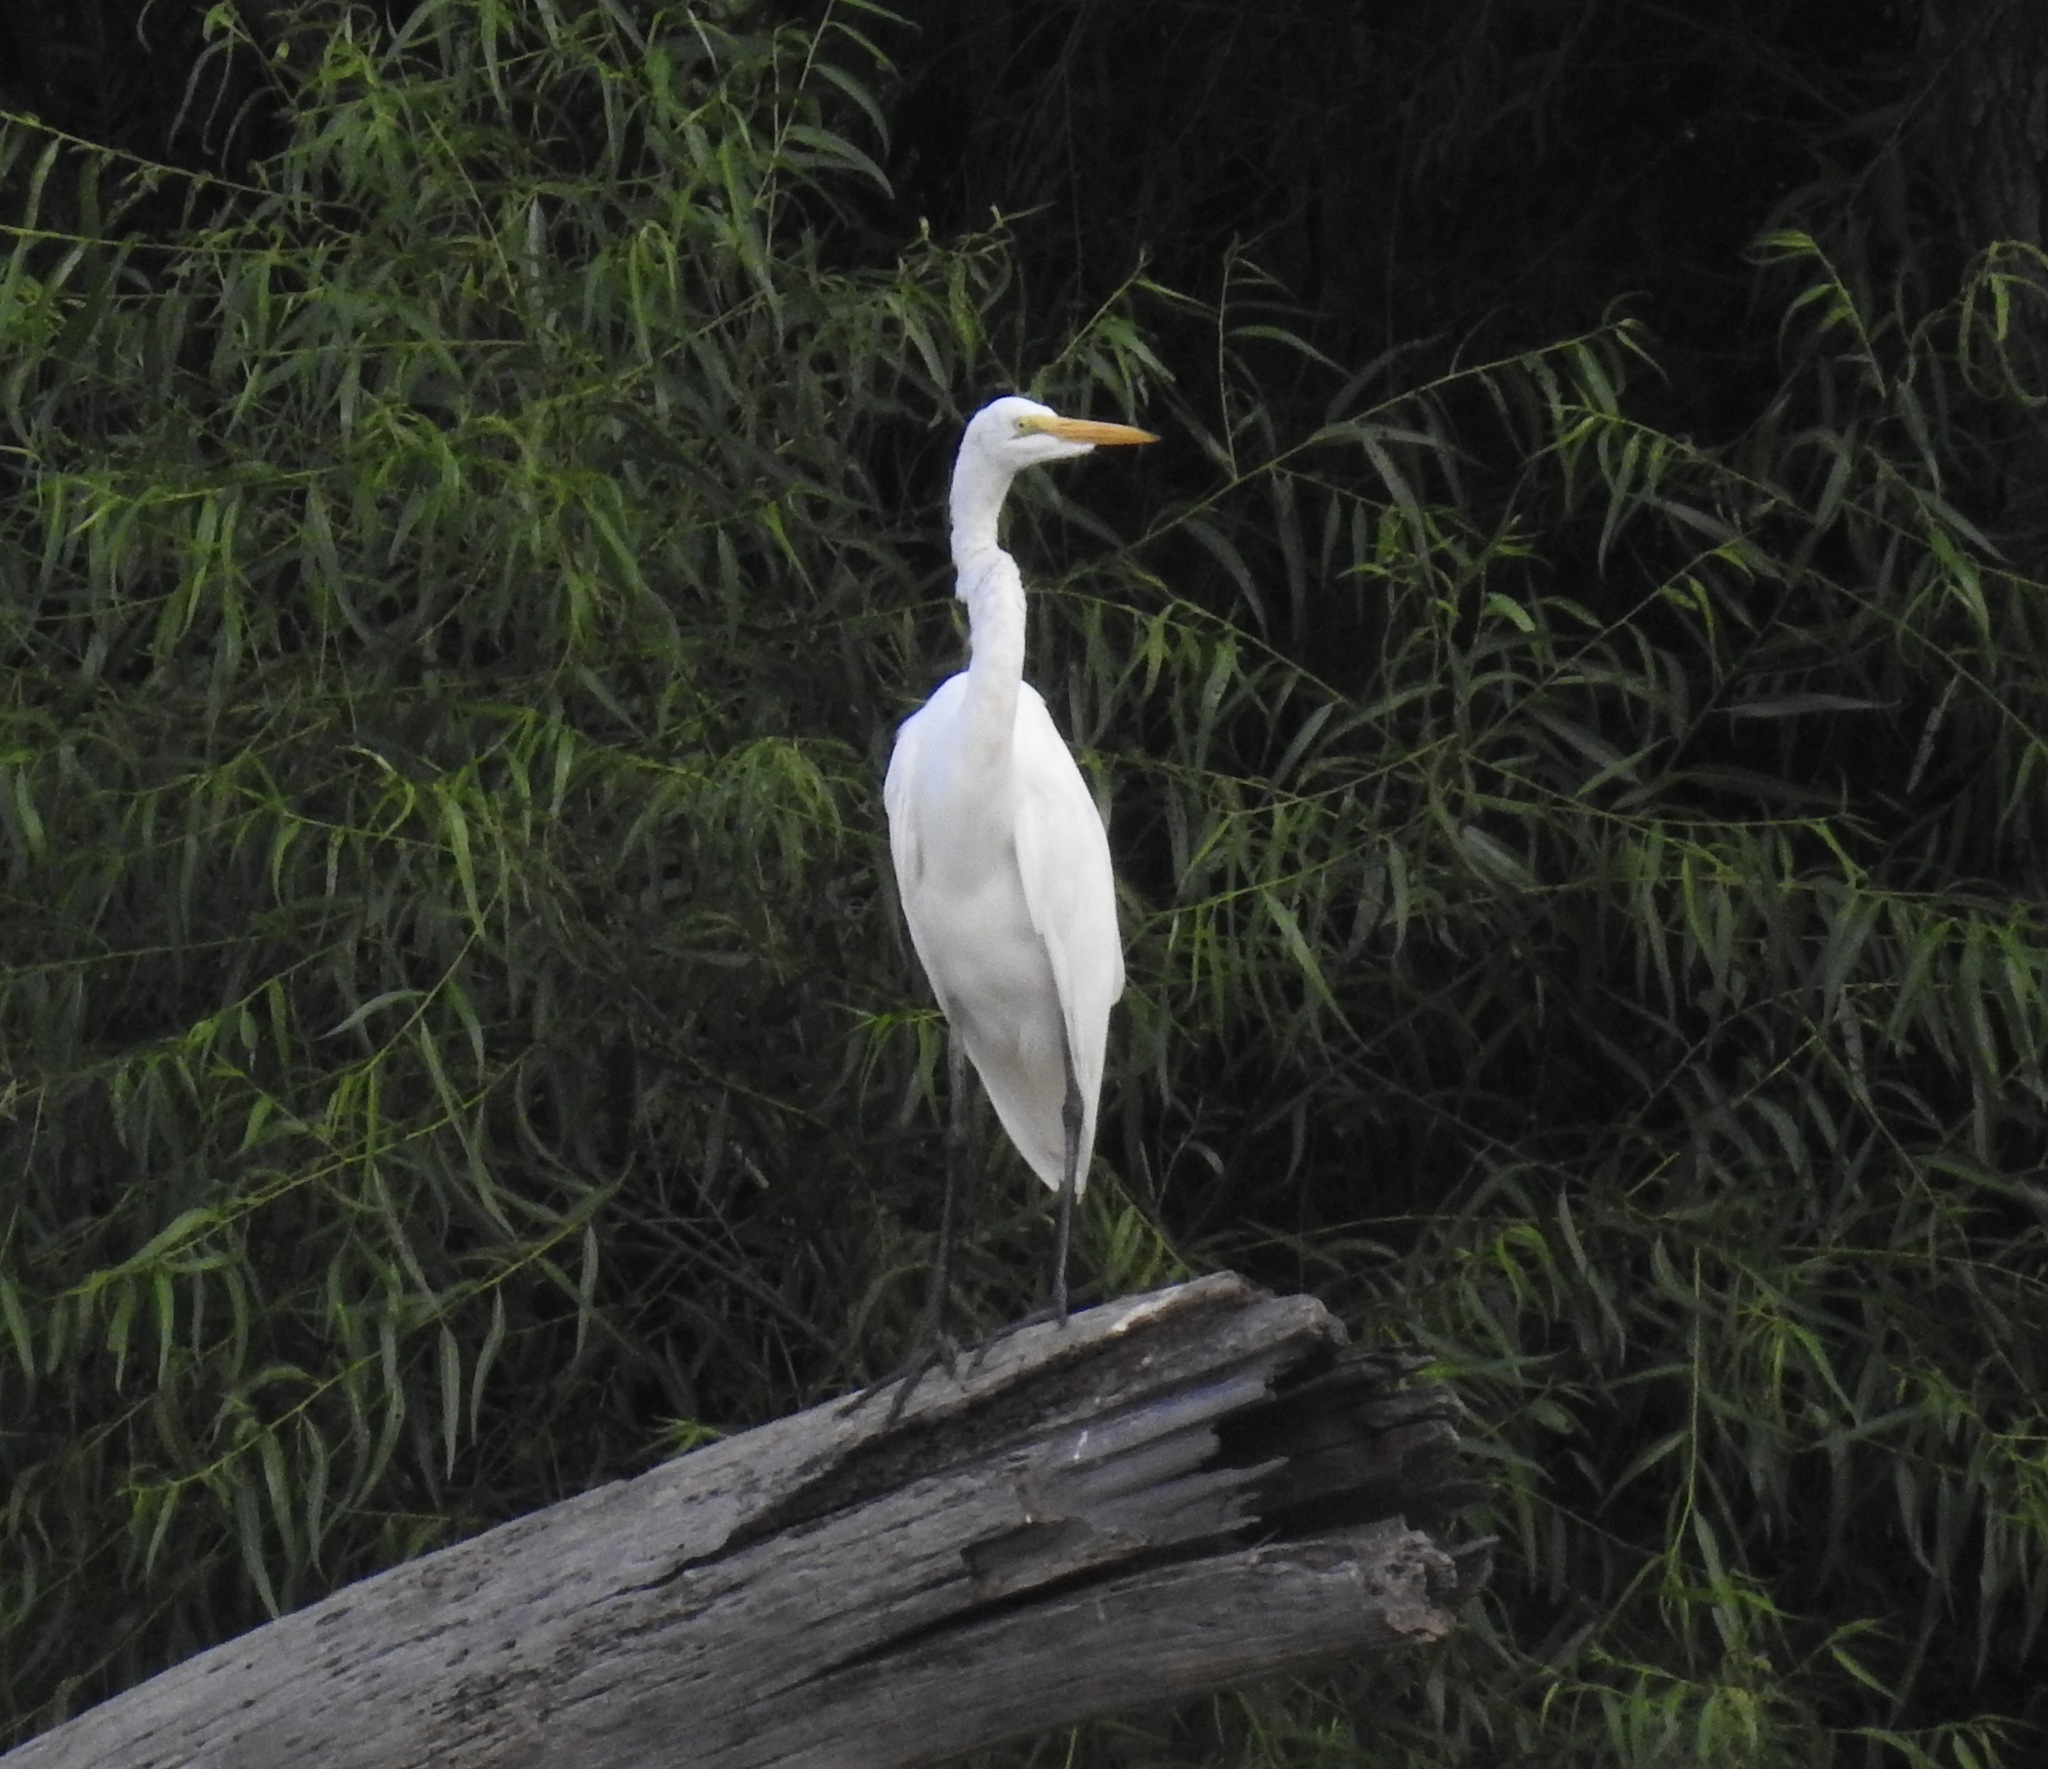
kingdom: Animalia
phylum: Chordata
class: Aves
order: Pelecaniformes
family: Ardeidae
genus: Ardea
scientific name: Ardea alba
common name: Great egret
